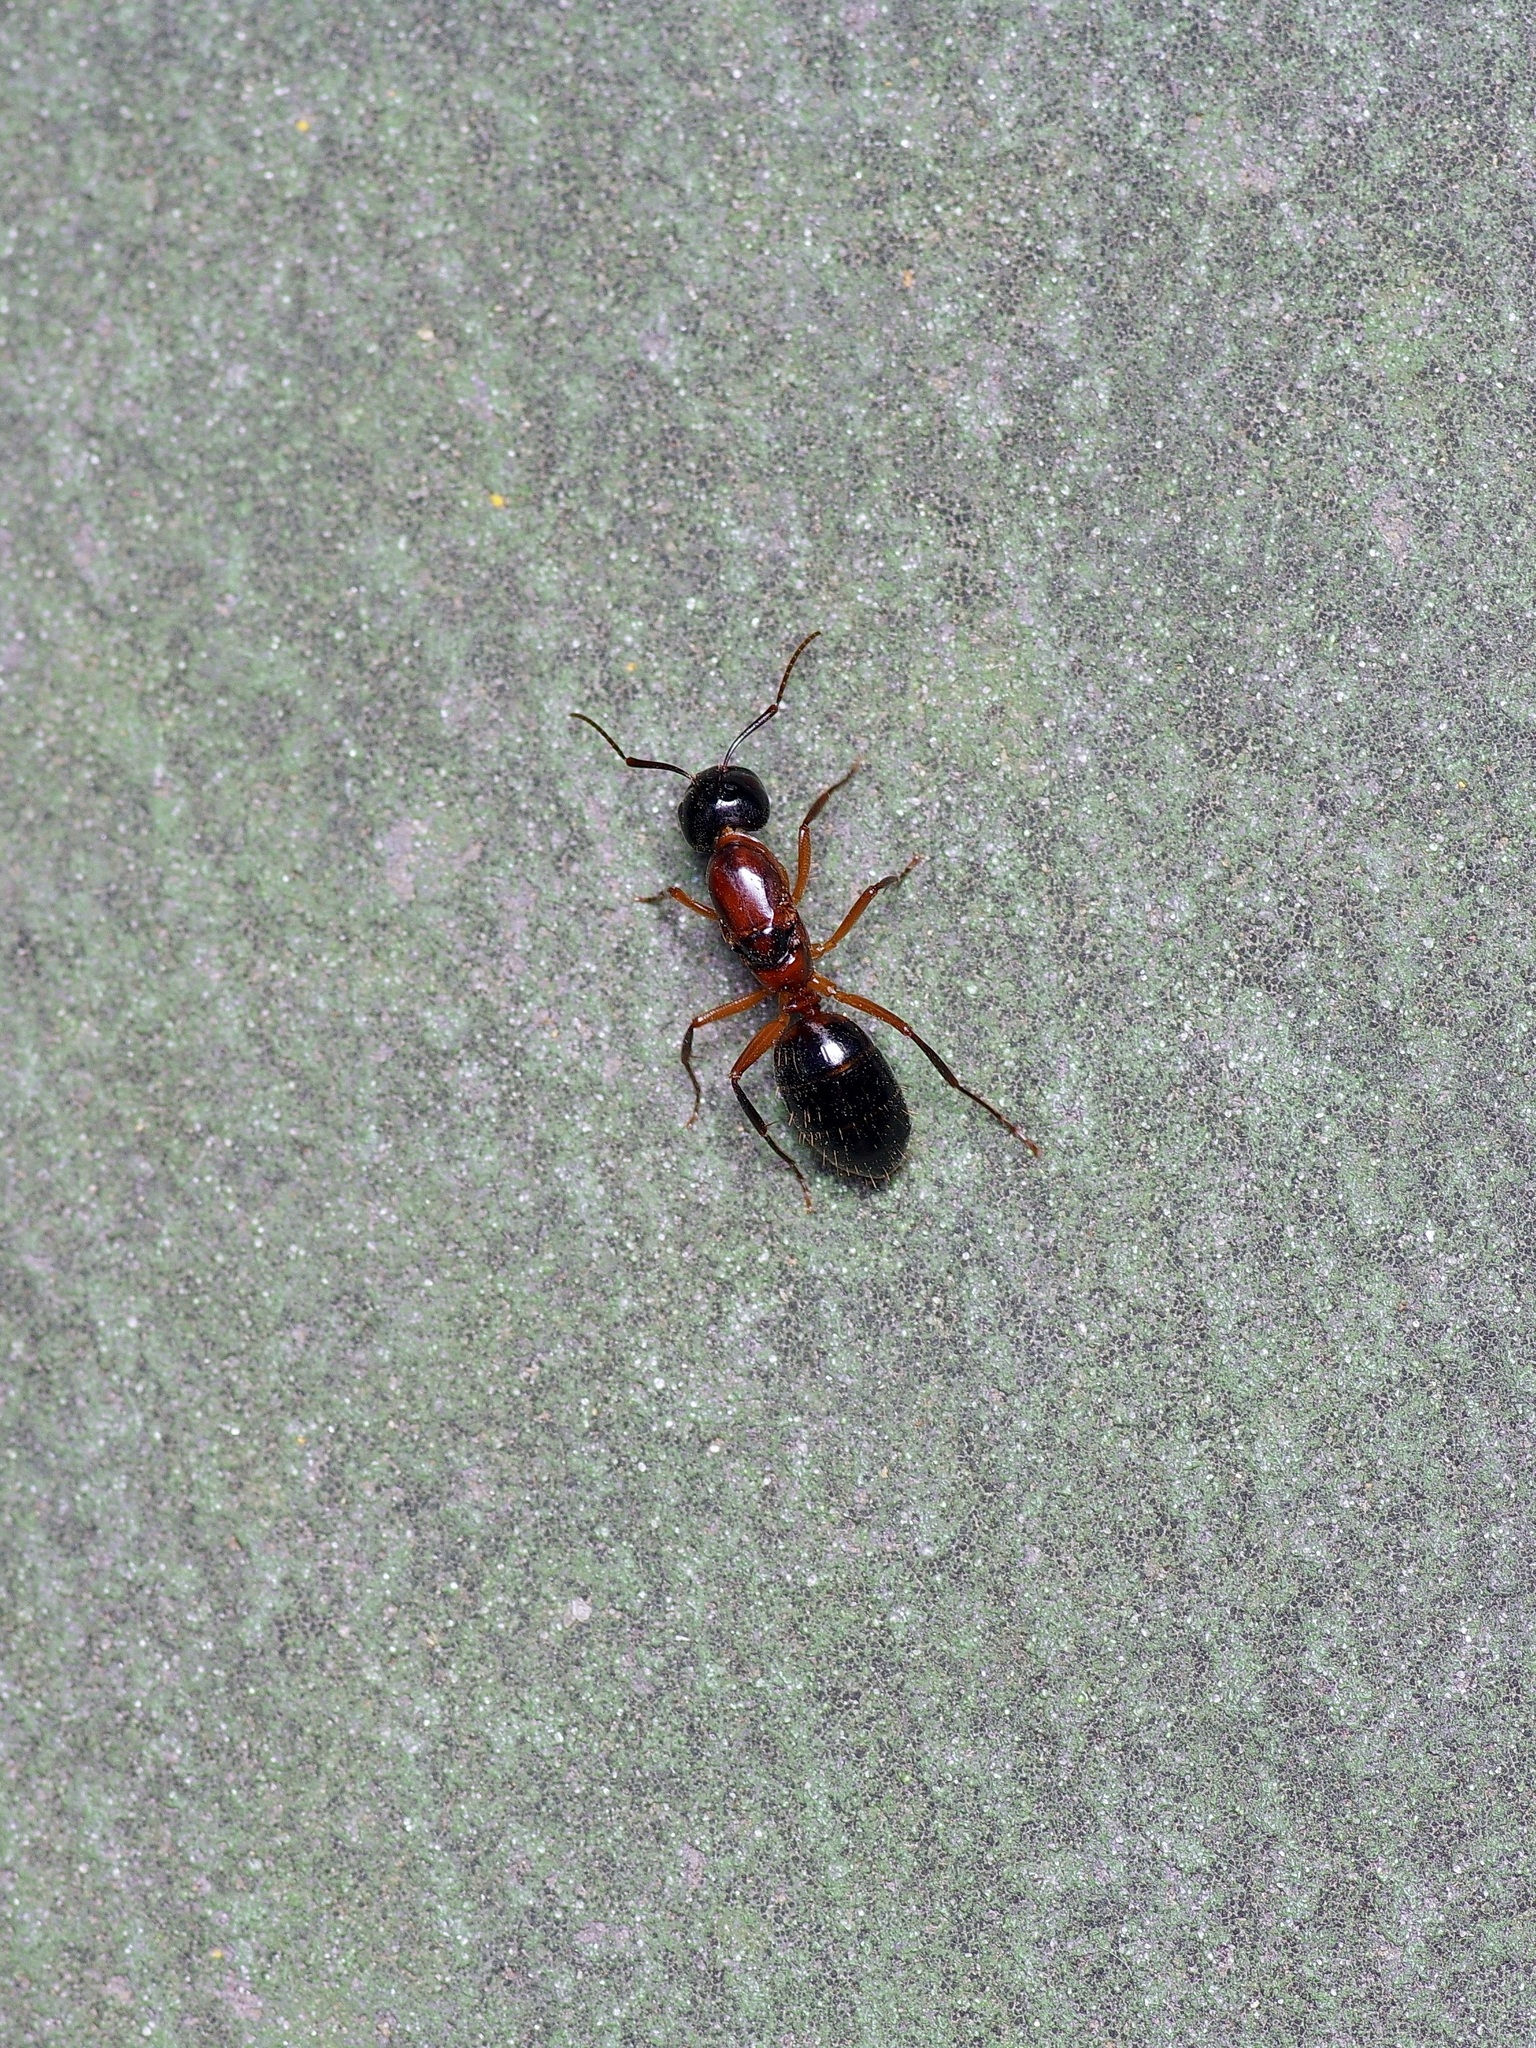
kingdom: Animalia
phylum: Arthropoda
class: Insecta
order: Hymenoptera
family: Formicidae
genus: Camponotus
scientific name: Camponotus texanus
